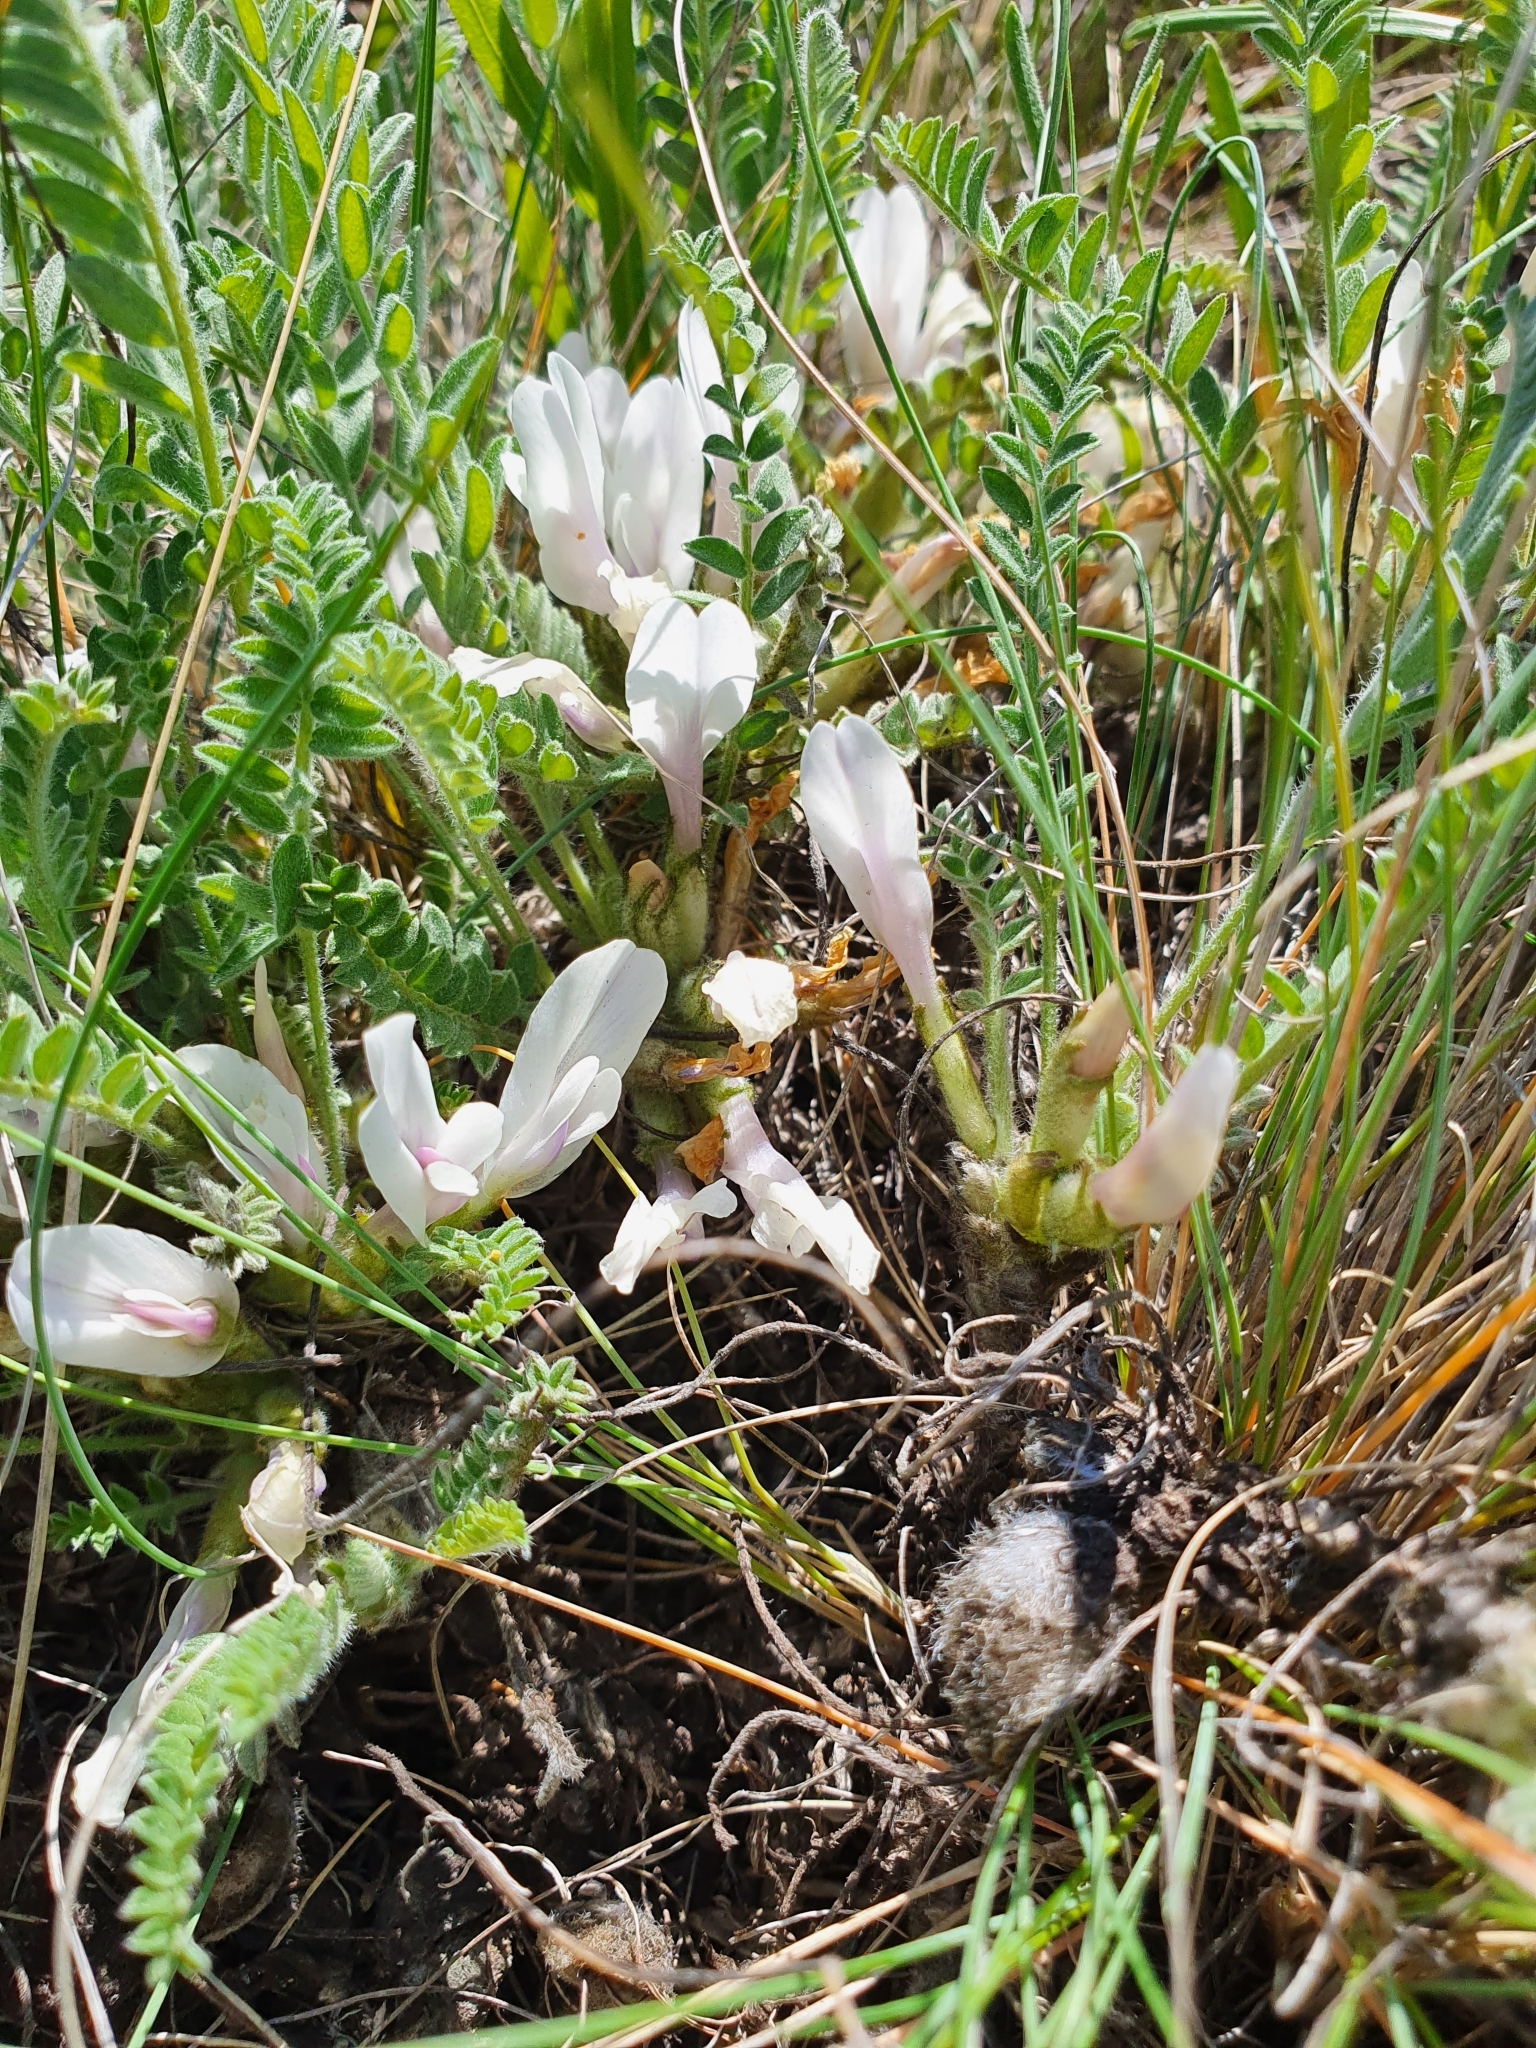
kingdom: Plantae
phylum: Tracheophyta
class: Magnoliopsida
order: Fabales
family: Fabaceae
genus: Astragalus
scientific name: Astragalus testiculatus
